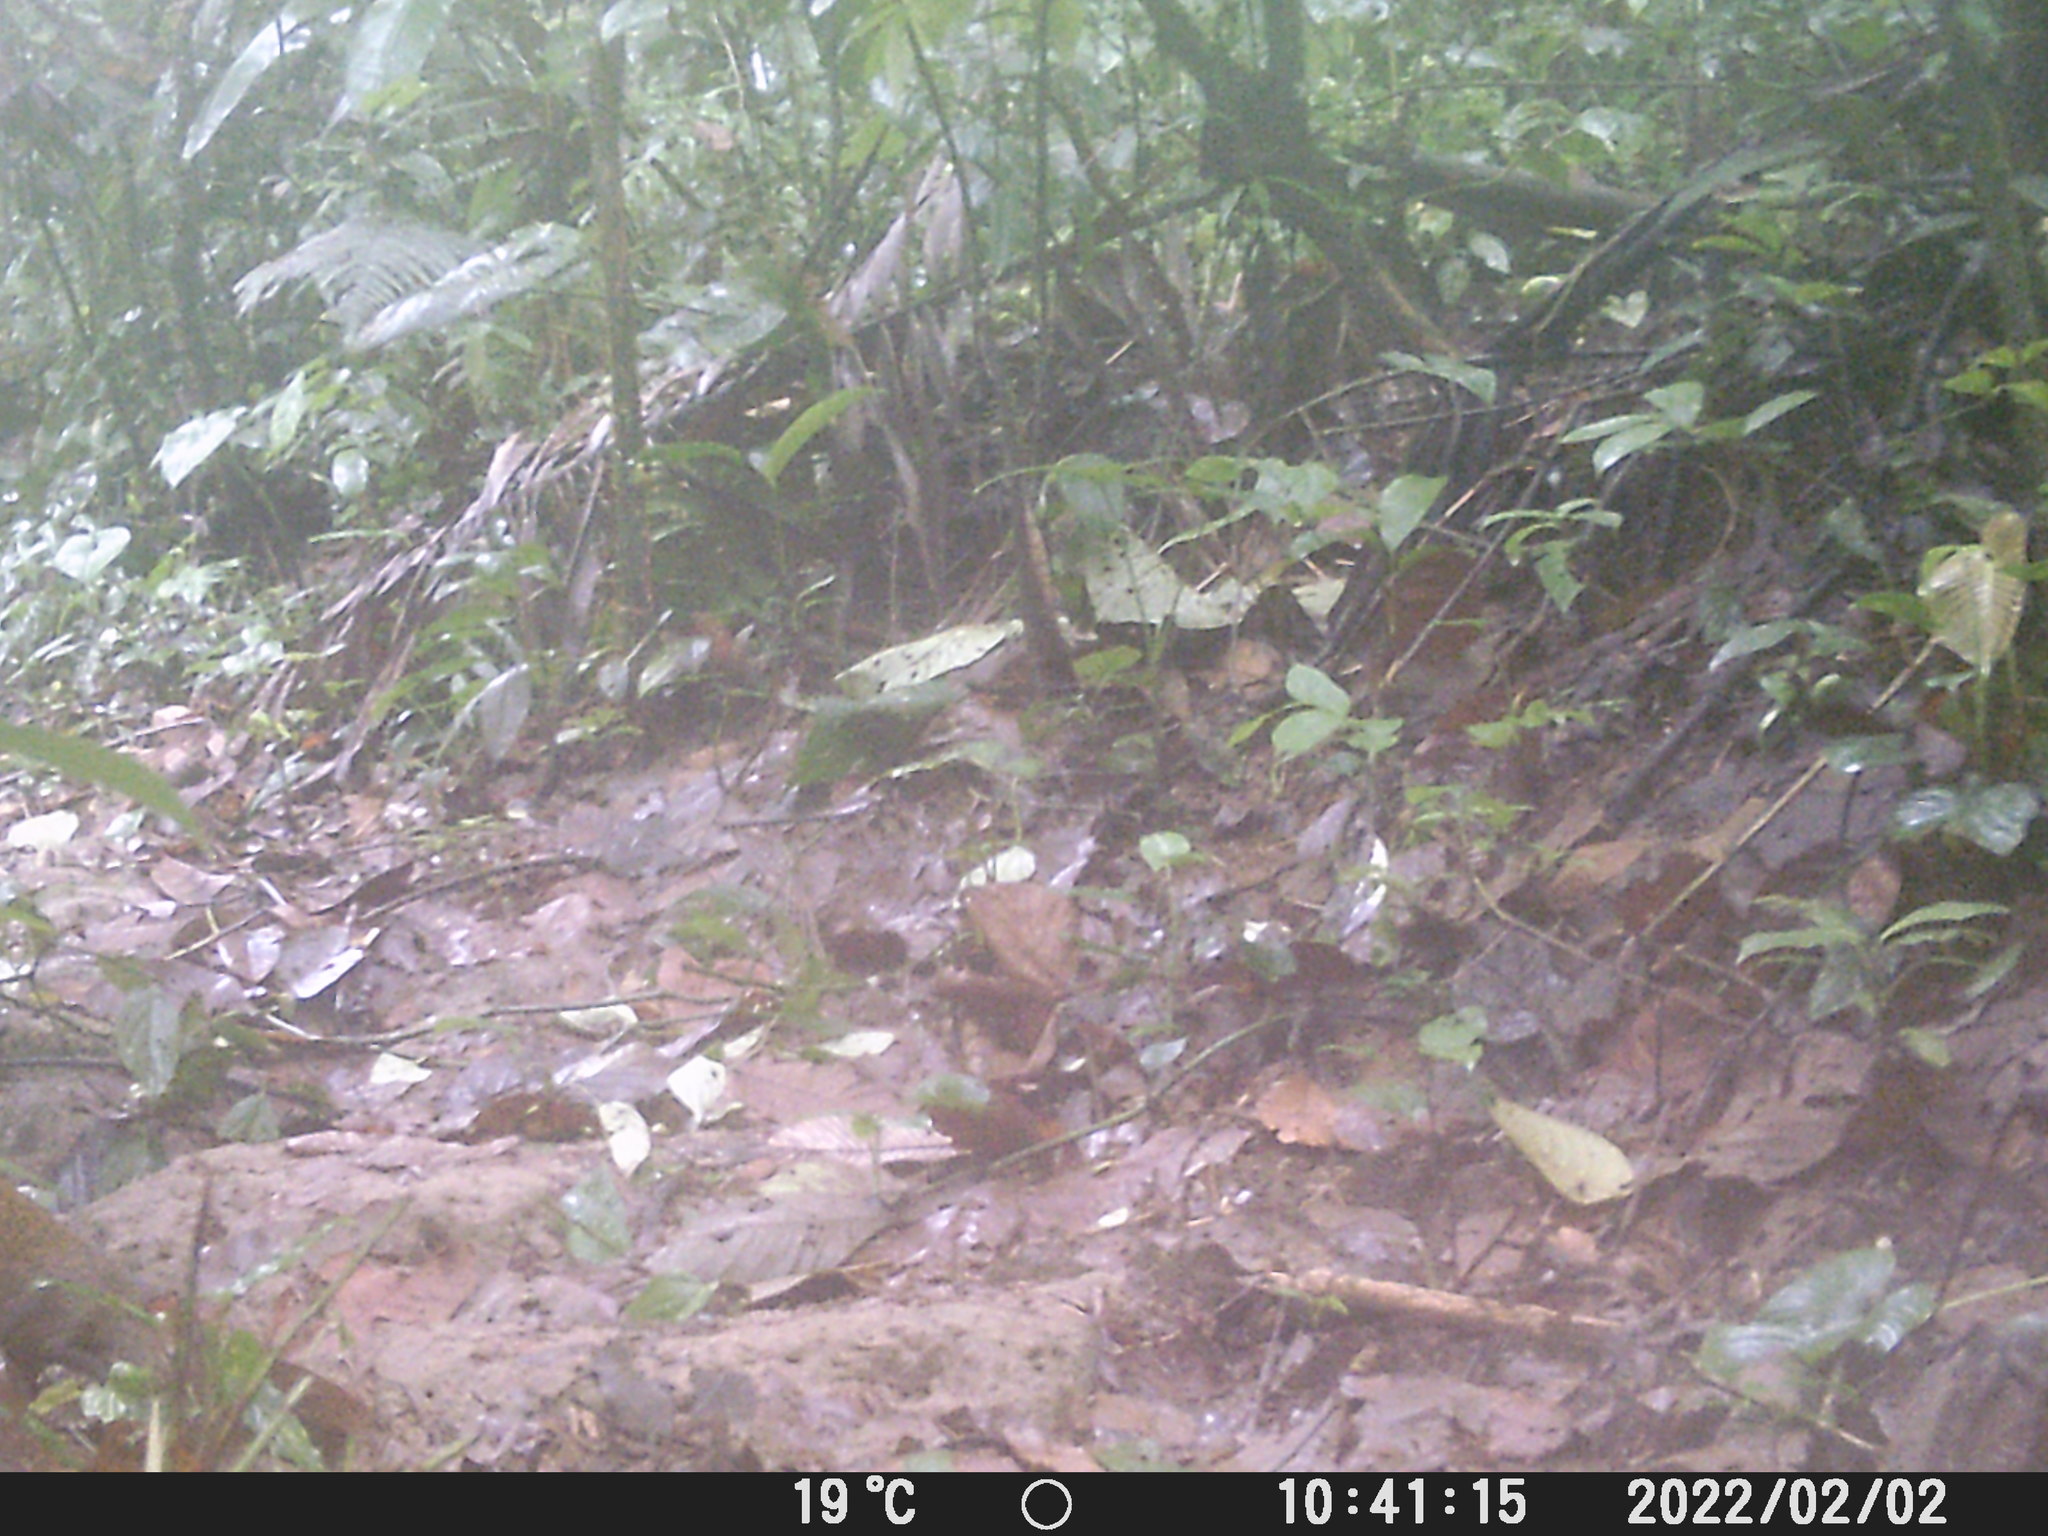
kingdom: Animalia
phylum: Chordata
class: Mammalia
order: Rodentia
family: Dasyproctidae
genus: Dasyprocta
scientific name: Dasyprocta punctata
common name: Central american agouti
